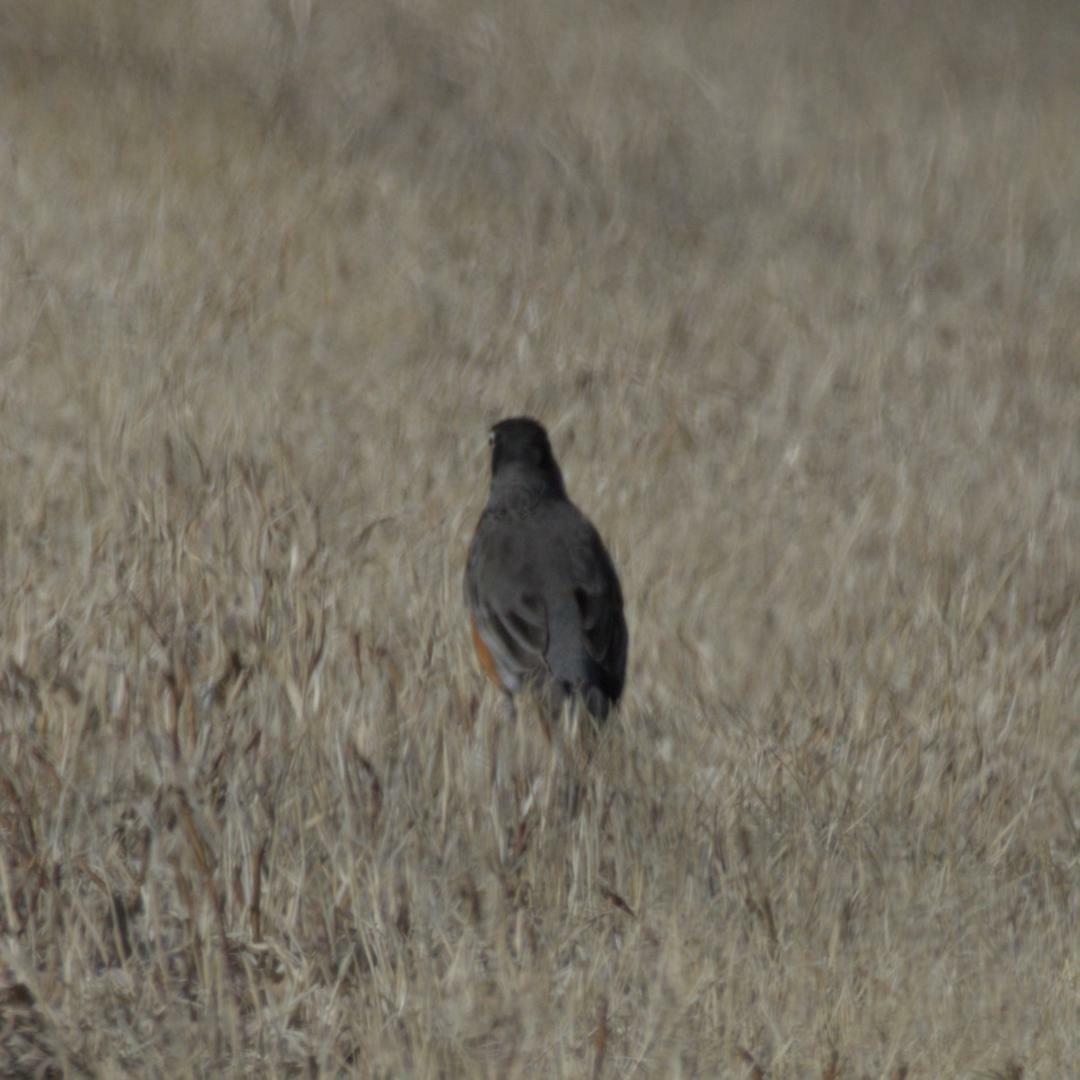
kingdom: Animalia
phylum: Chordata
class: Aves
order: Passeriformes
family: Turdidae
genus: Turdus
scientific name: Turdus migratorius
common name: American robin
